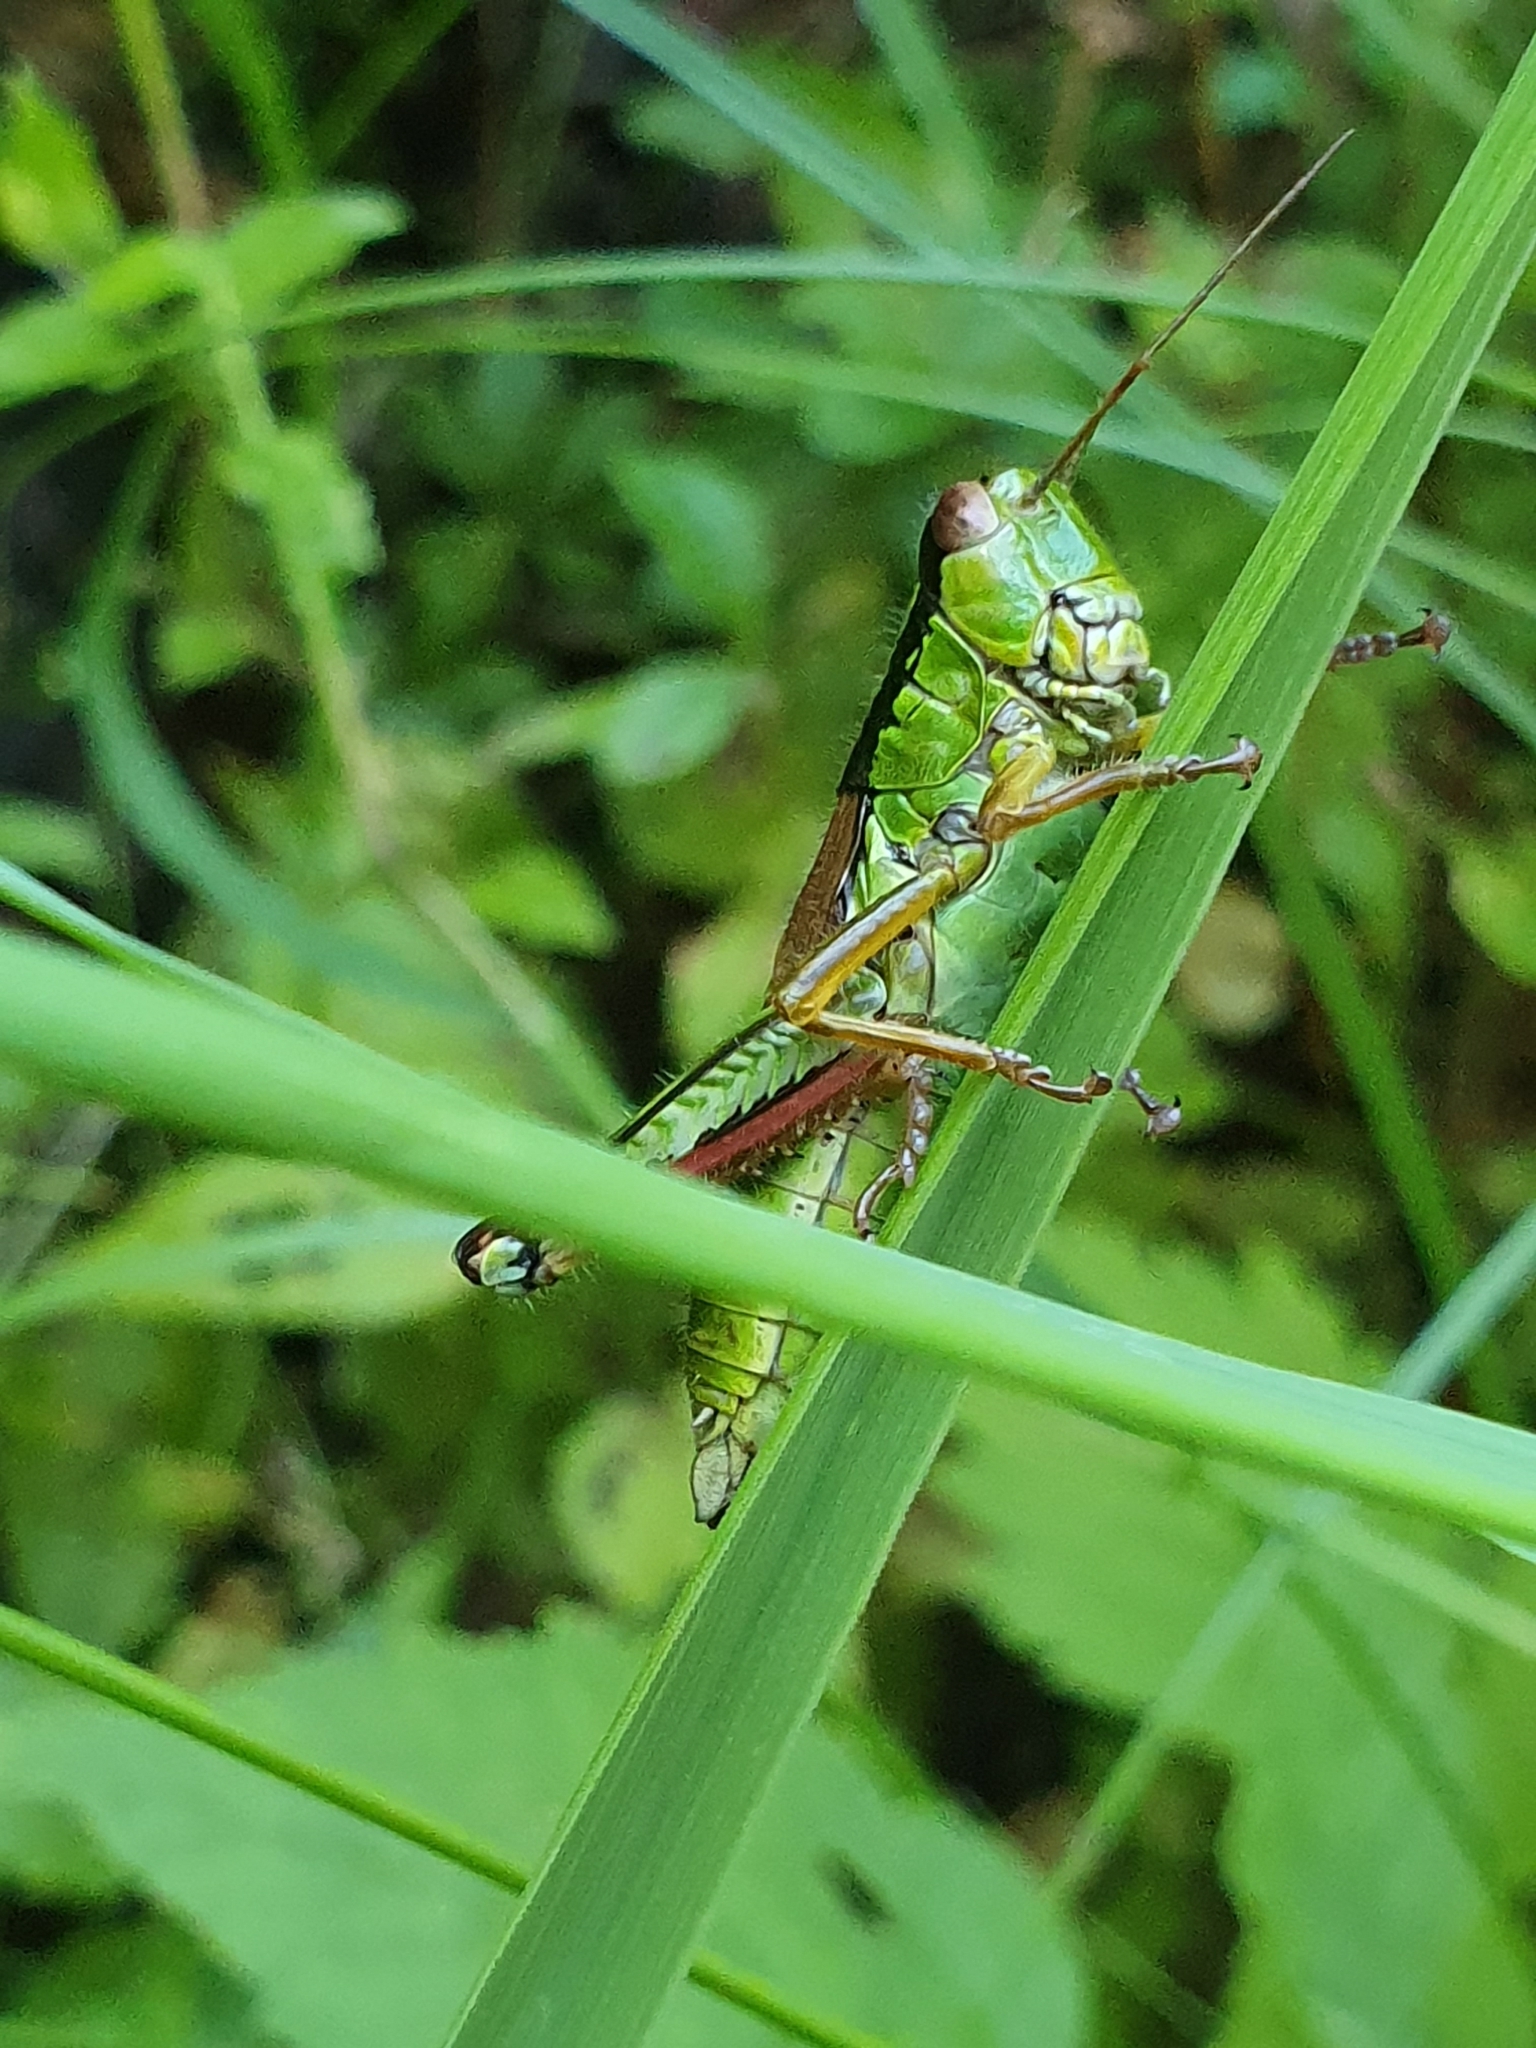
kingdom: Animalia
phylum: Arthropoda
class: Insecta
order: Orthoptera
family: Acrididae
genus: Miramella
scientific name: Miramella alpina
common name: Green mountain grasshopper
